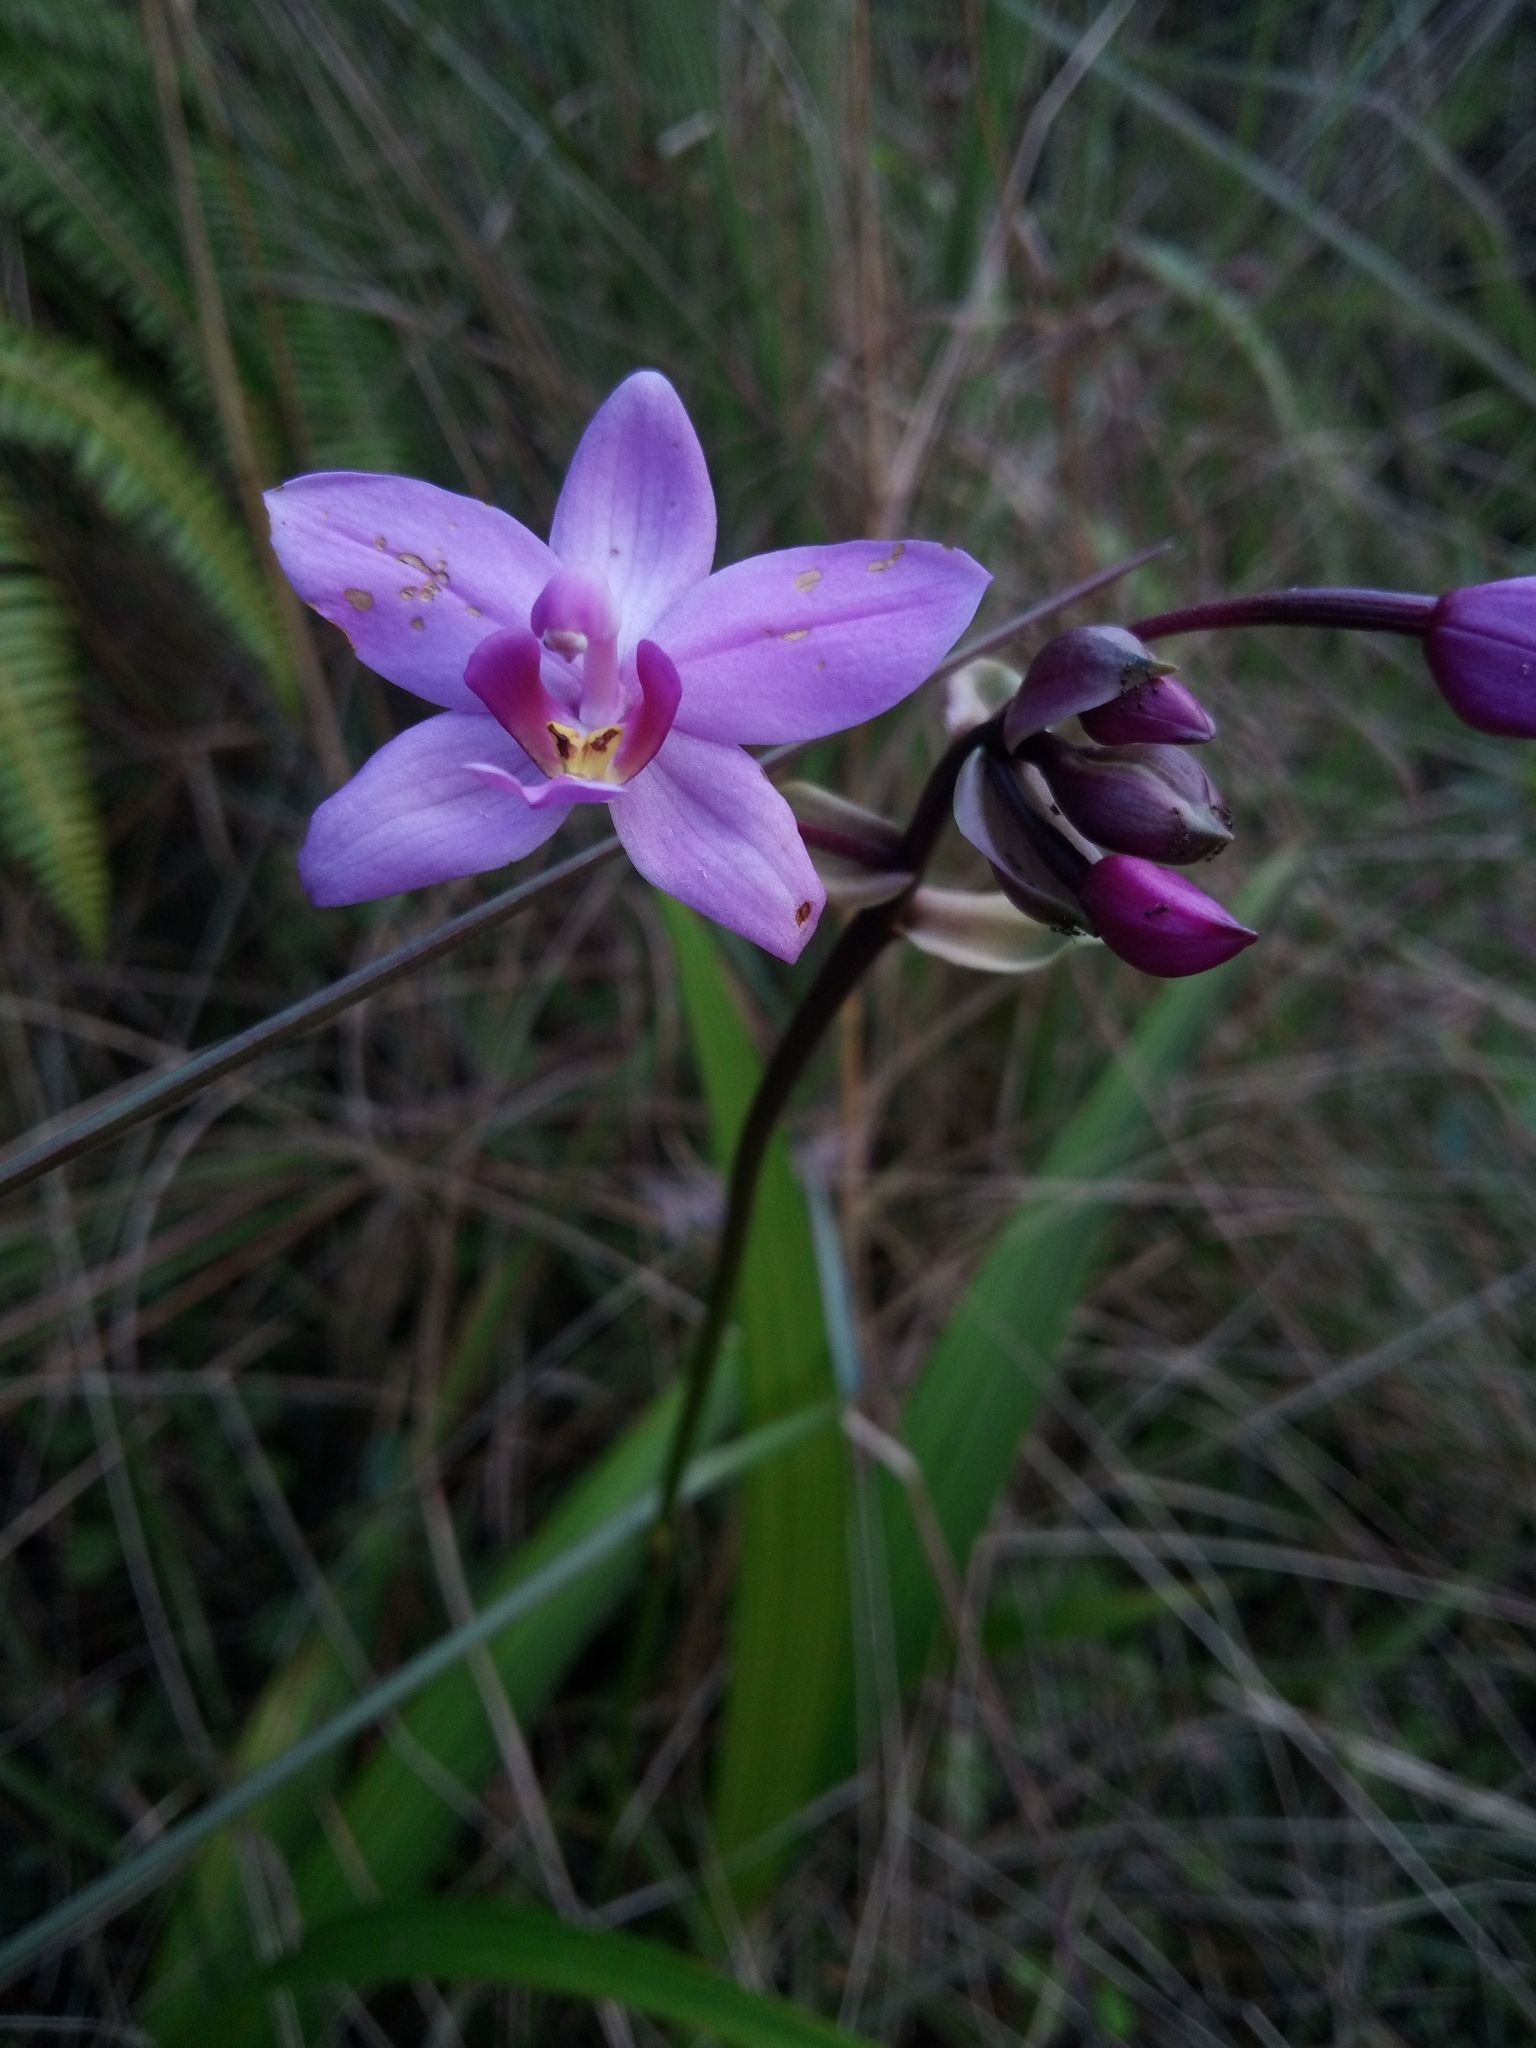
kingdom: Plantae
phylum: Tracheophyta
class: Liliopsida
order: Asparagales
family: Orchidaceae
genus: Spathoglottis
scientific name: Spathoglottis plicata
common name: Philippine ground orchid
